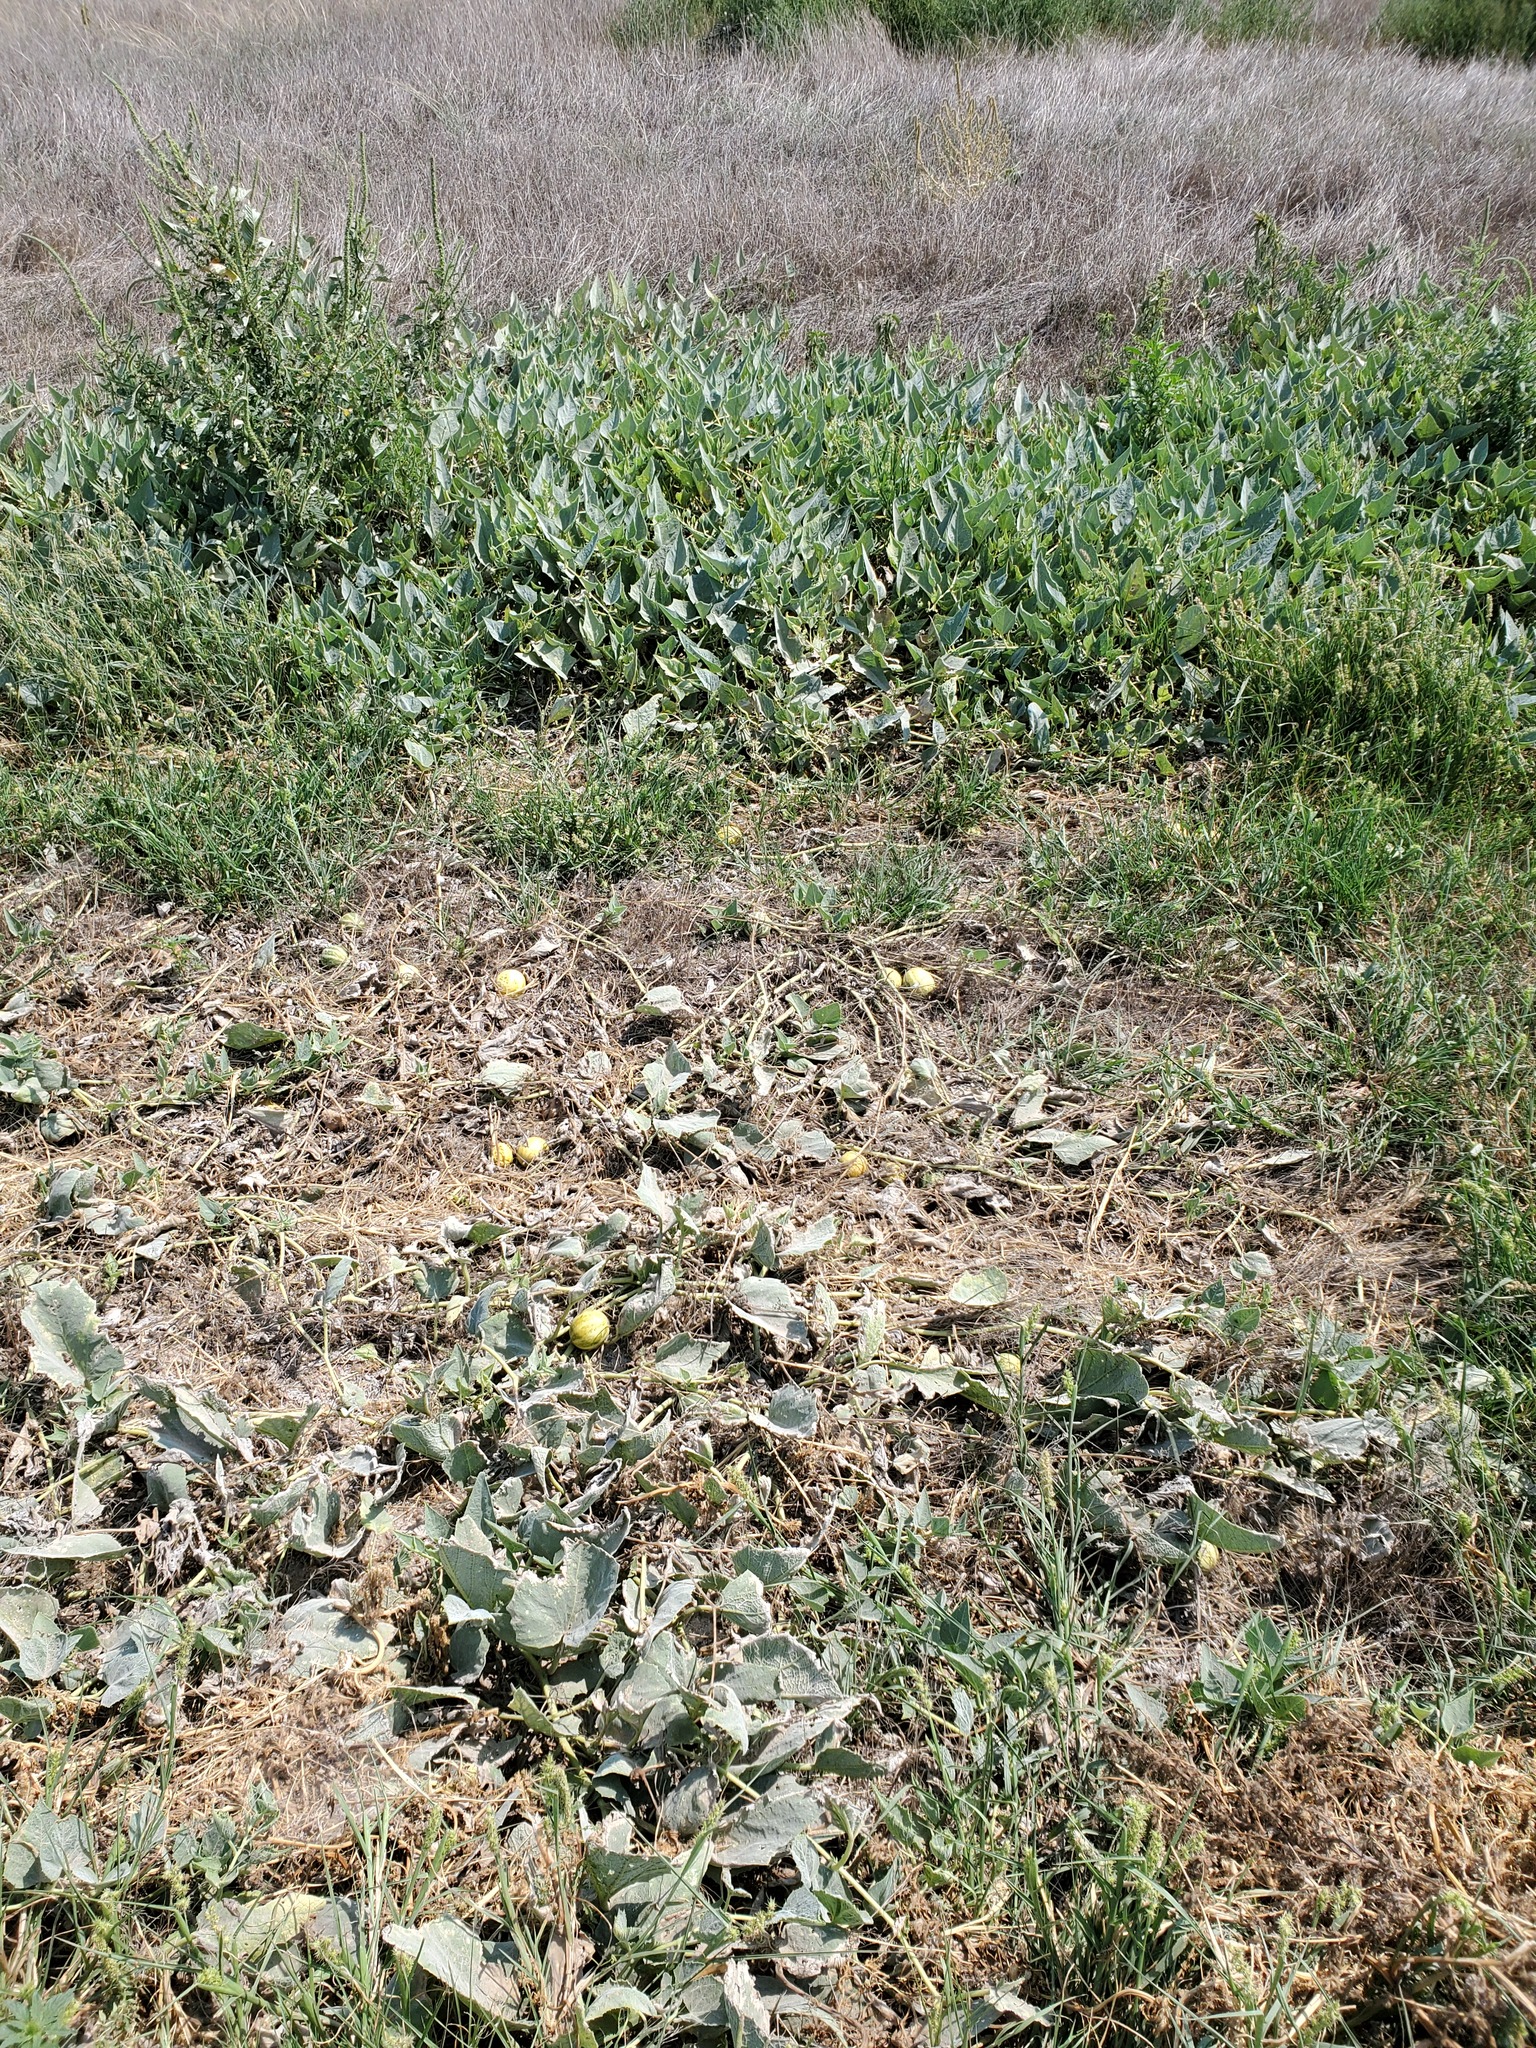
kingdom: Plantae
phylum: Tracheophyta
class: Magnoliopsida
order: Cucurbitales
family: Cucurbitaceae
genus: Cucurbita
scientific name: Cucurbita foetidissima
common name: Buffalo gourd
